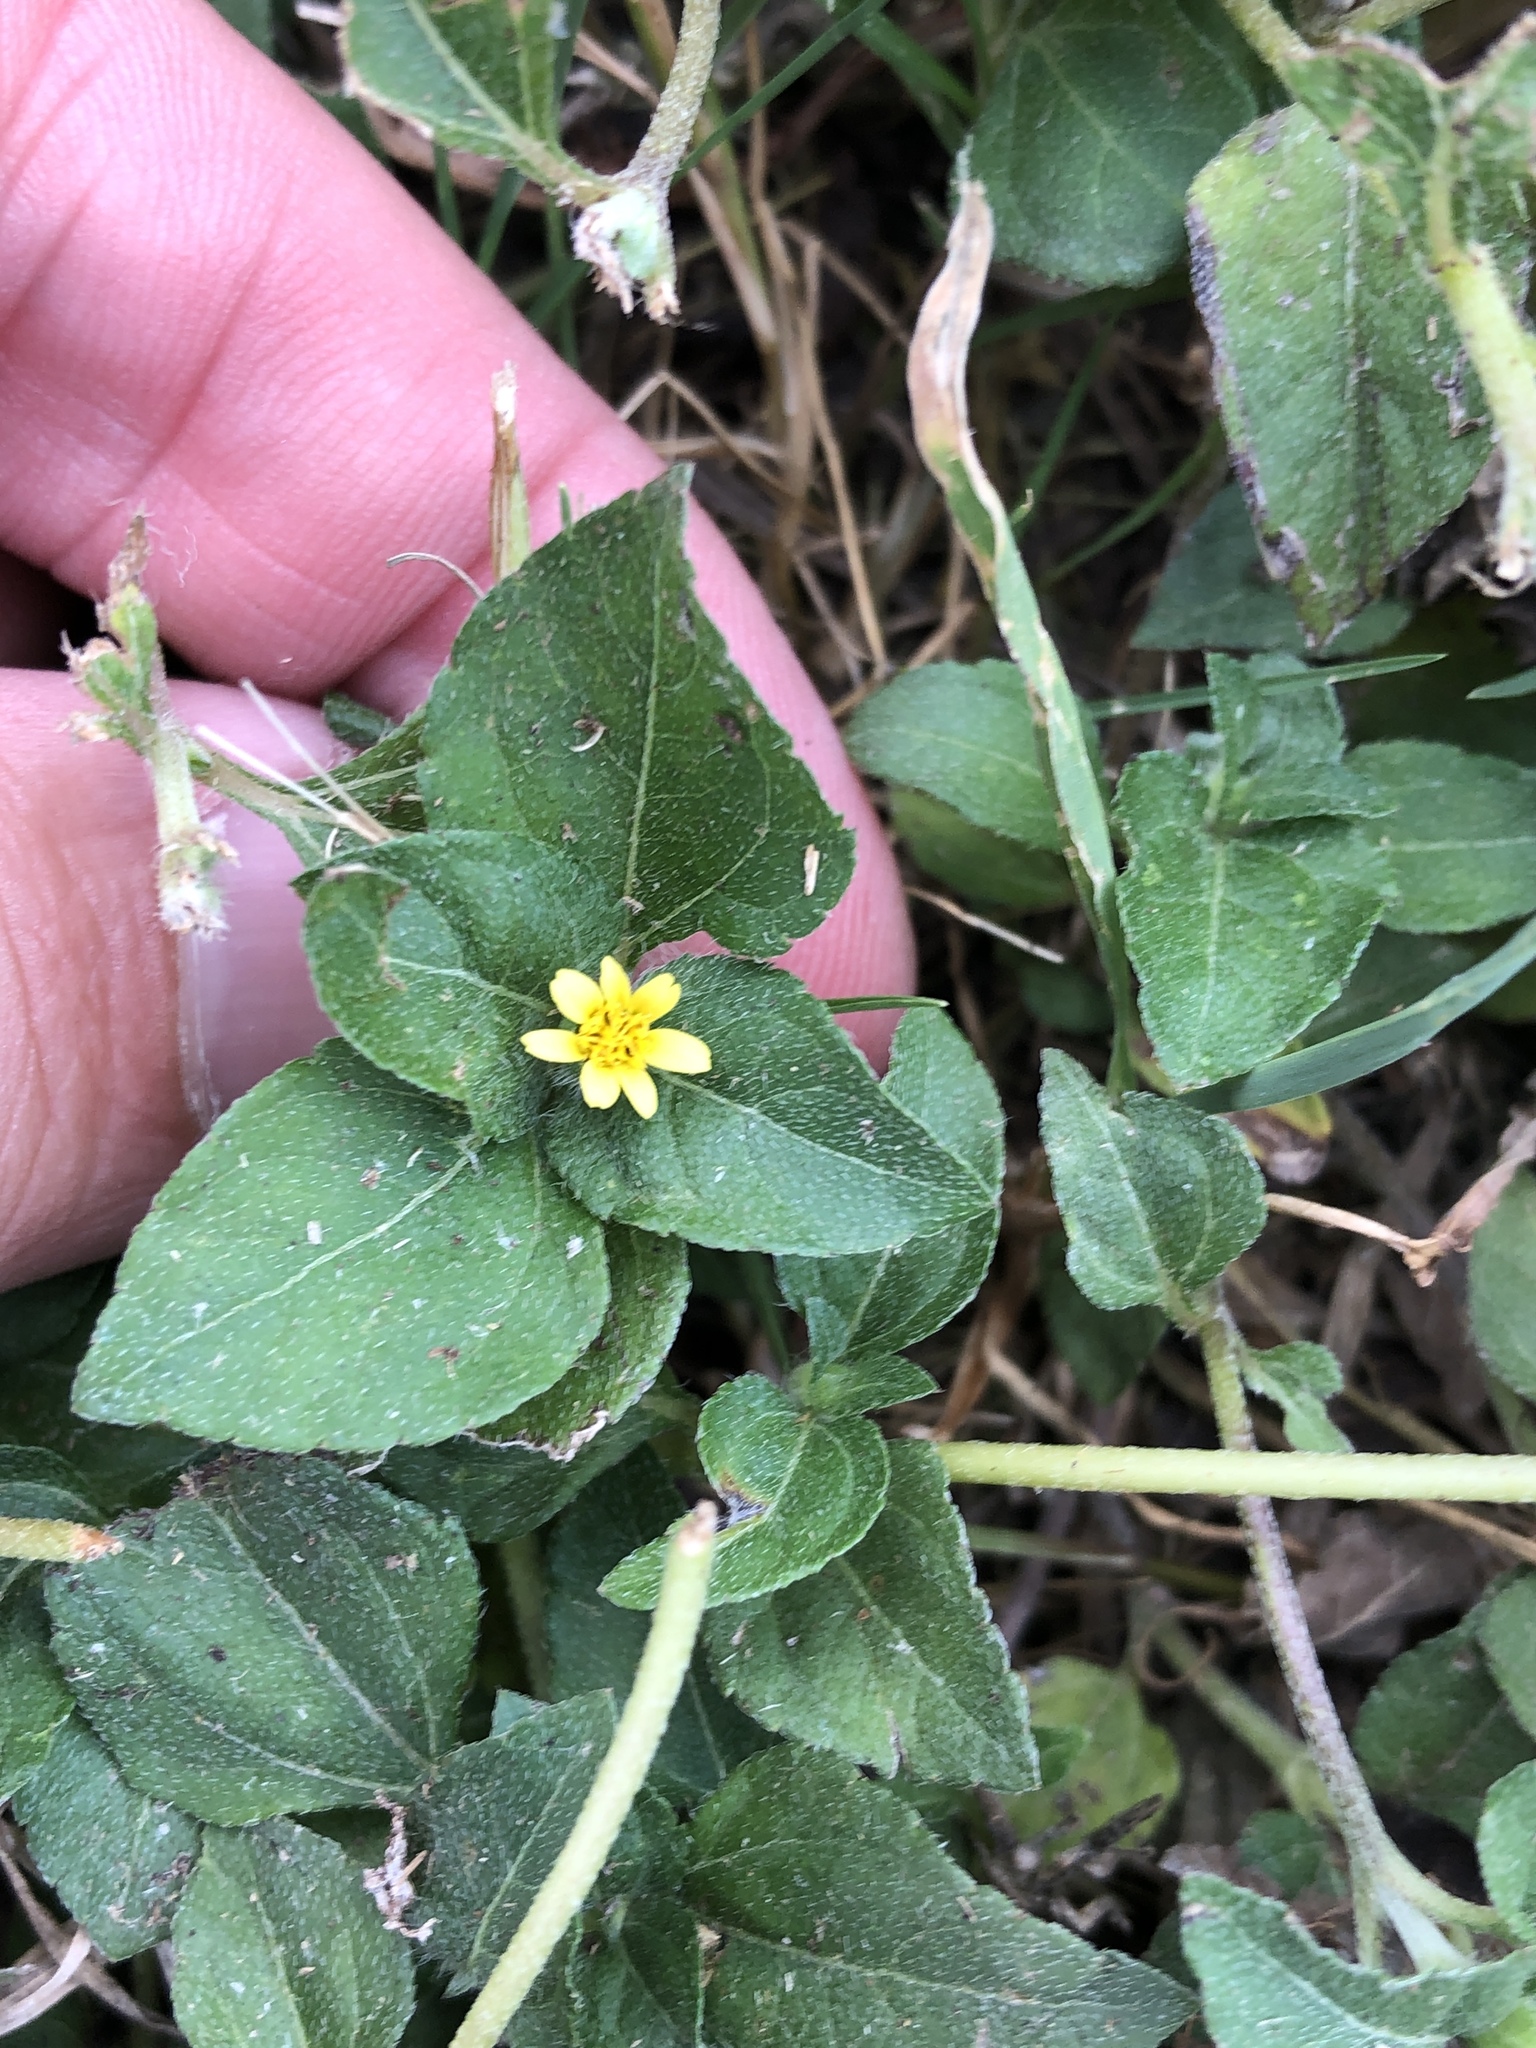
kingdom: Plantae
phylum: Tracheophyta
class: Magnoliopsida
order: Asterales
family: Asteraceae
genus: Calyptocarpus
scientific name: Calyptocarpus vialis
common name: Straggler daisy
